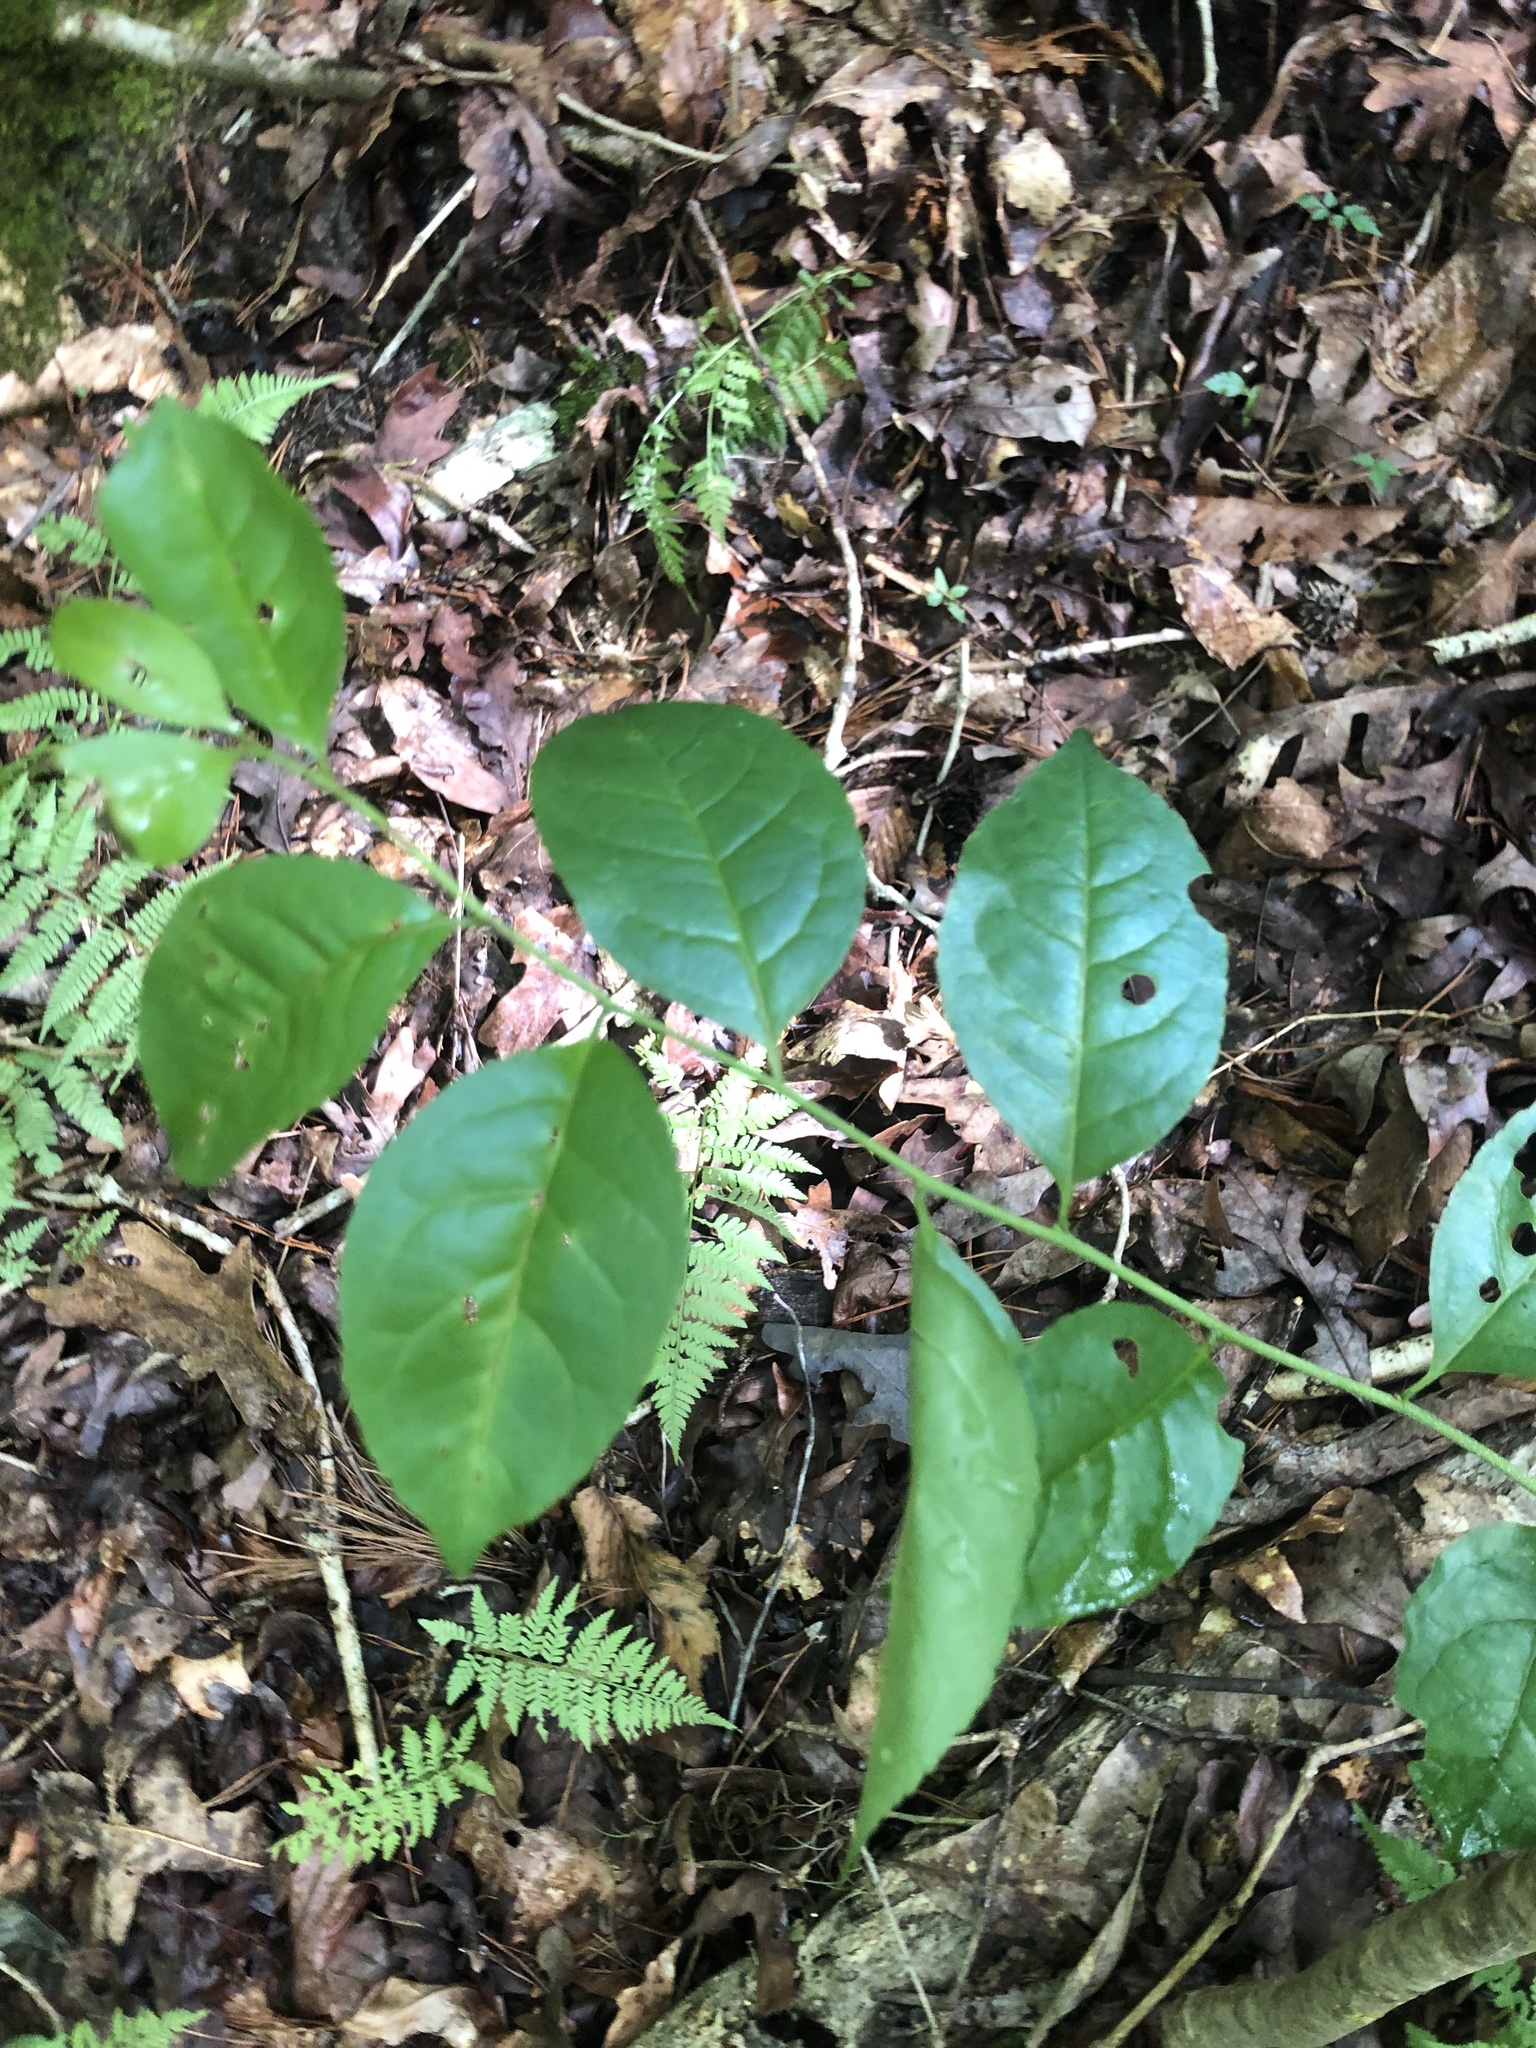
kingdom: Plantae
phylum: Tracheophyta
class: Magnoliopsida
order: Aquifoliales
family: Aquifoliaceae
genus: Ilex
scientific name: Ilex ambigua
